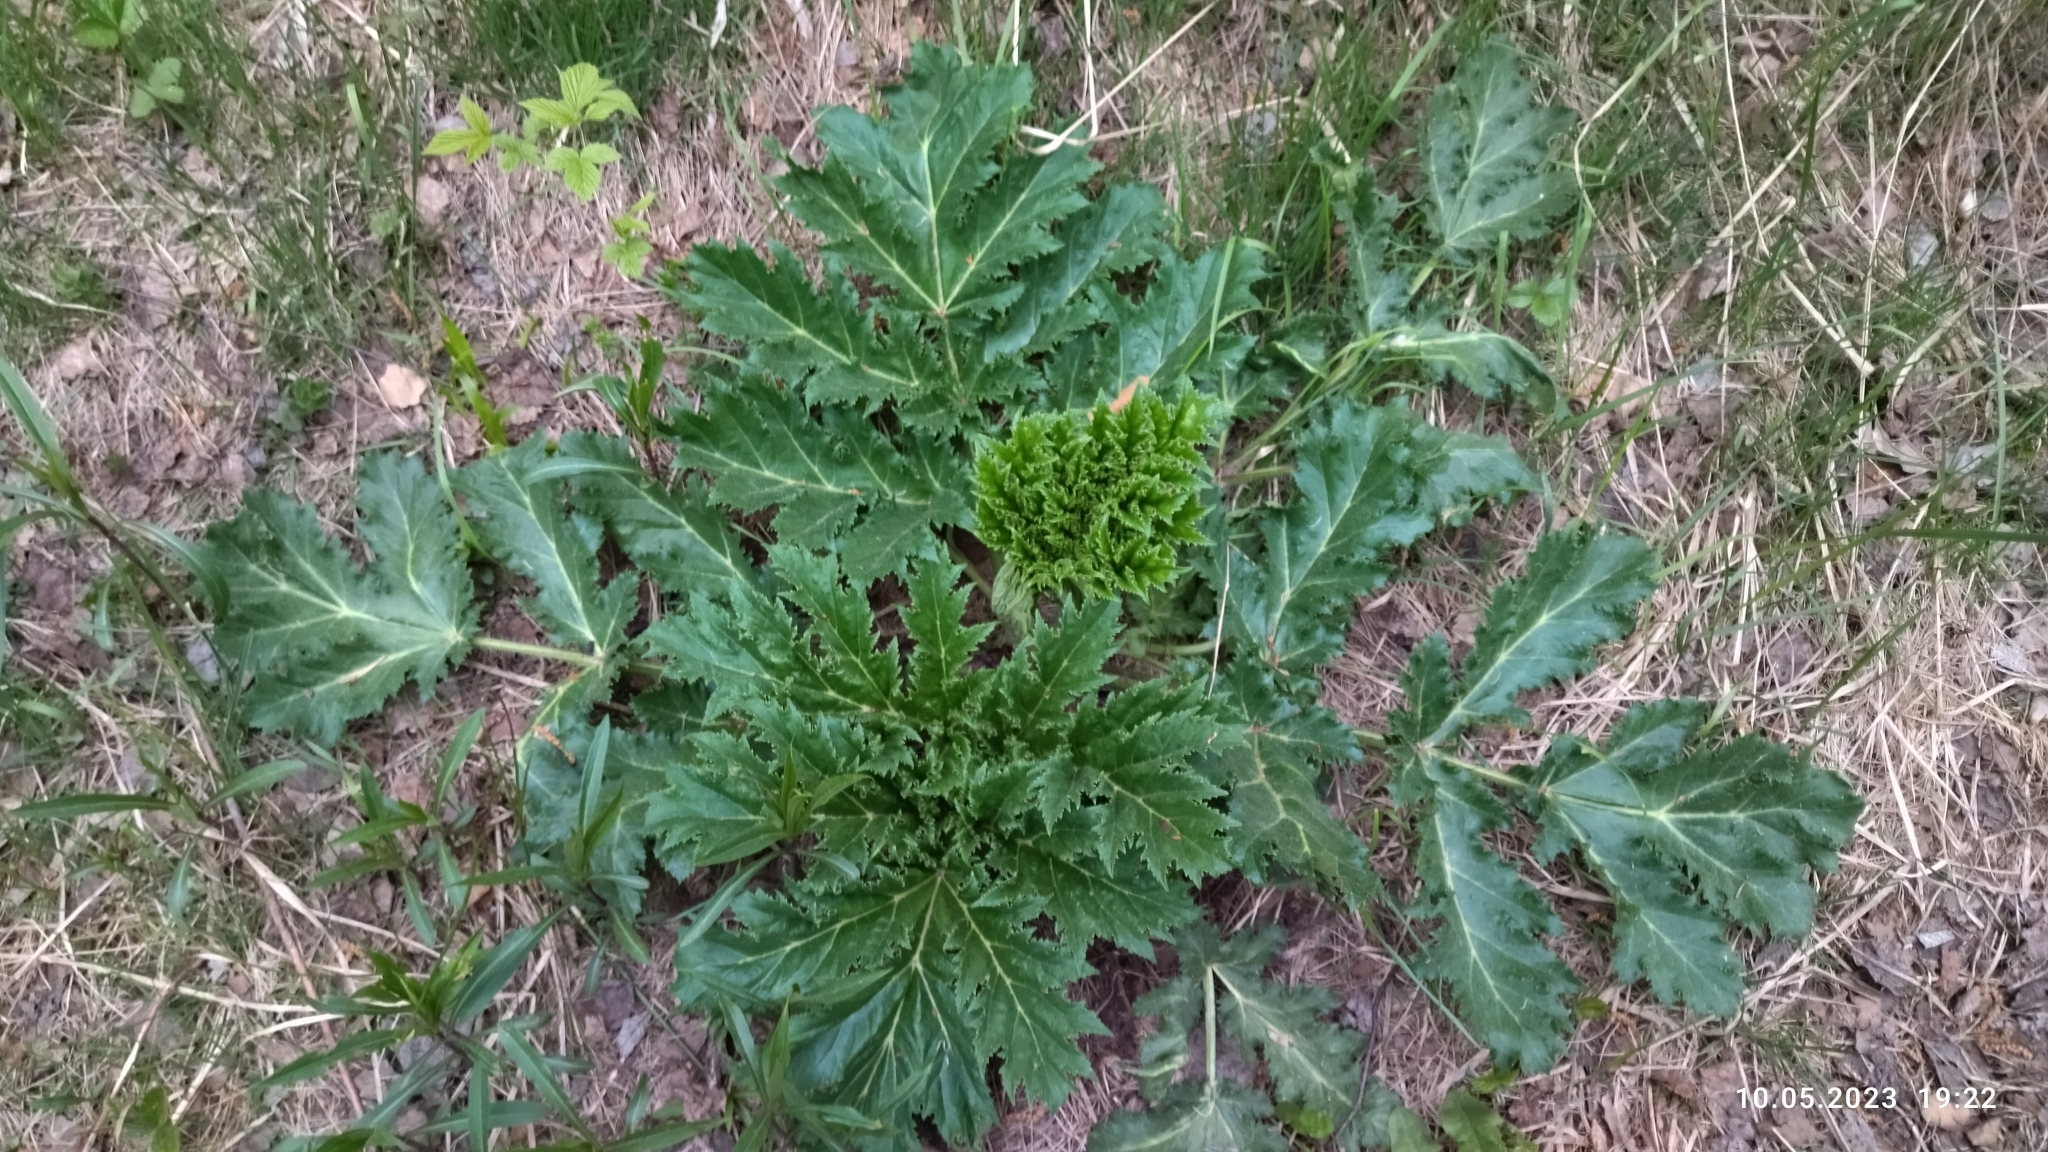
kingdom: Plantae
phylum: Tracheophyta
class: Magnoliopsida
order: Apiales
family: Apiaceae
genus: Heracleum
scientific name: Heracleum sosnowskyi
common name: Sosnowsky's hogweed
